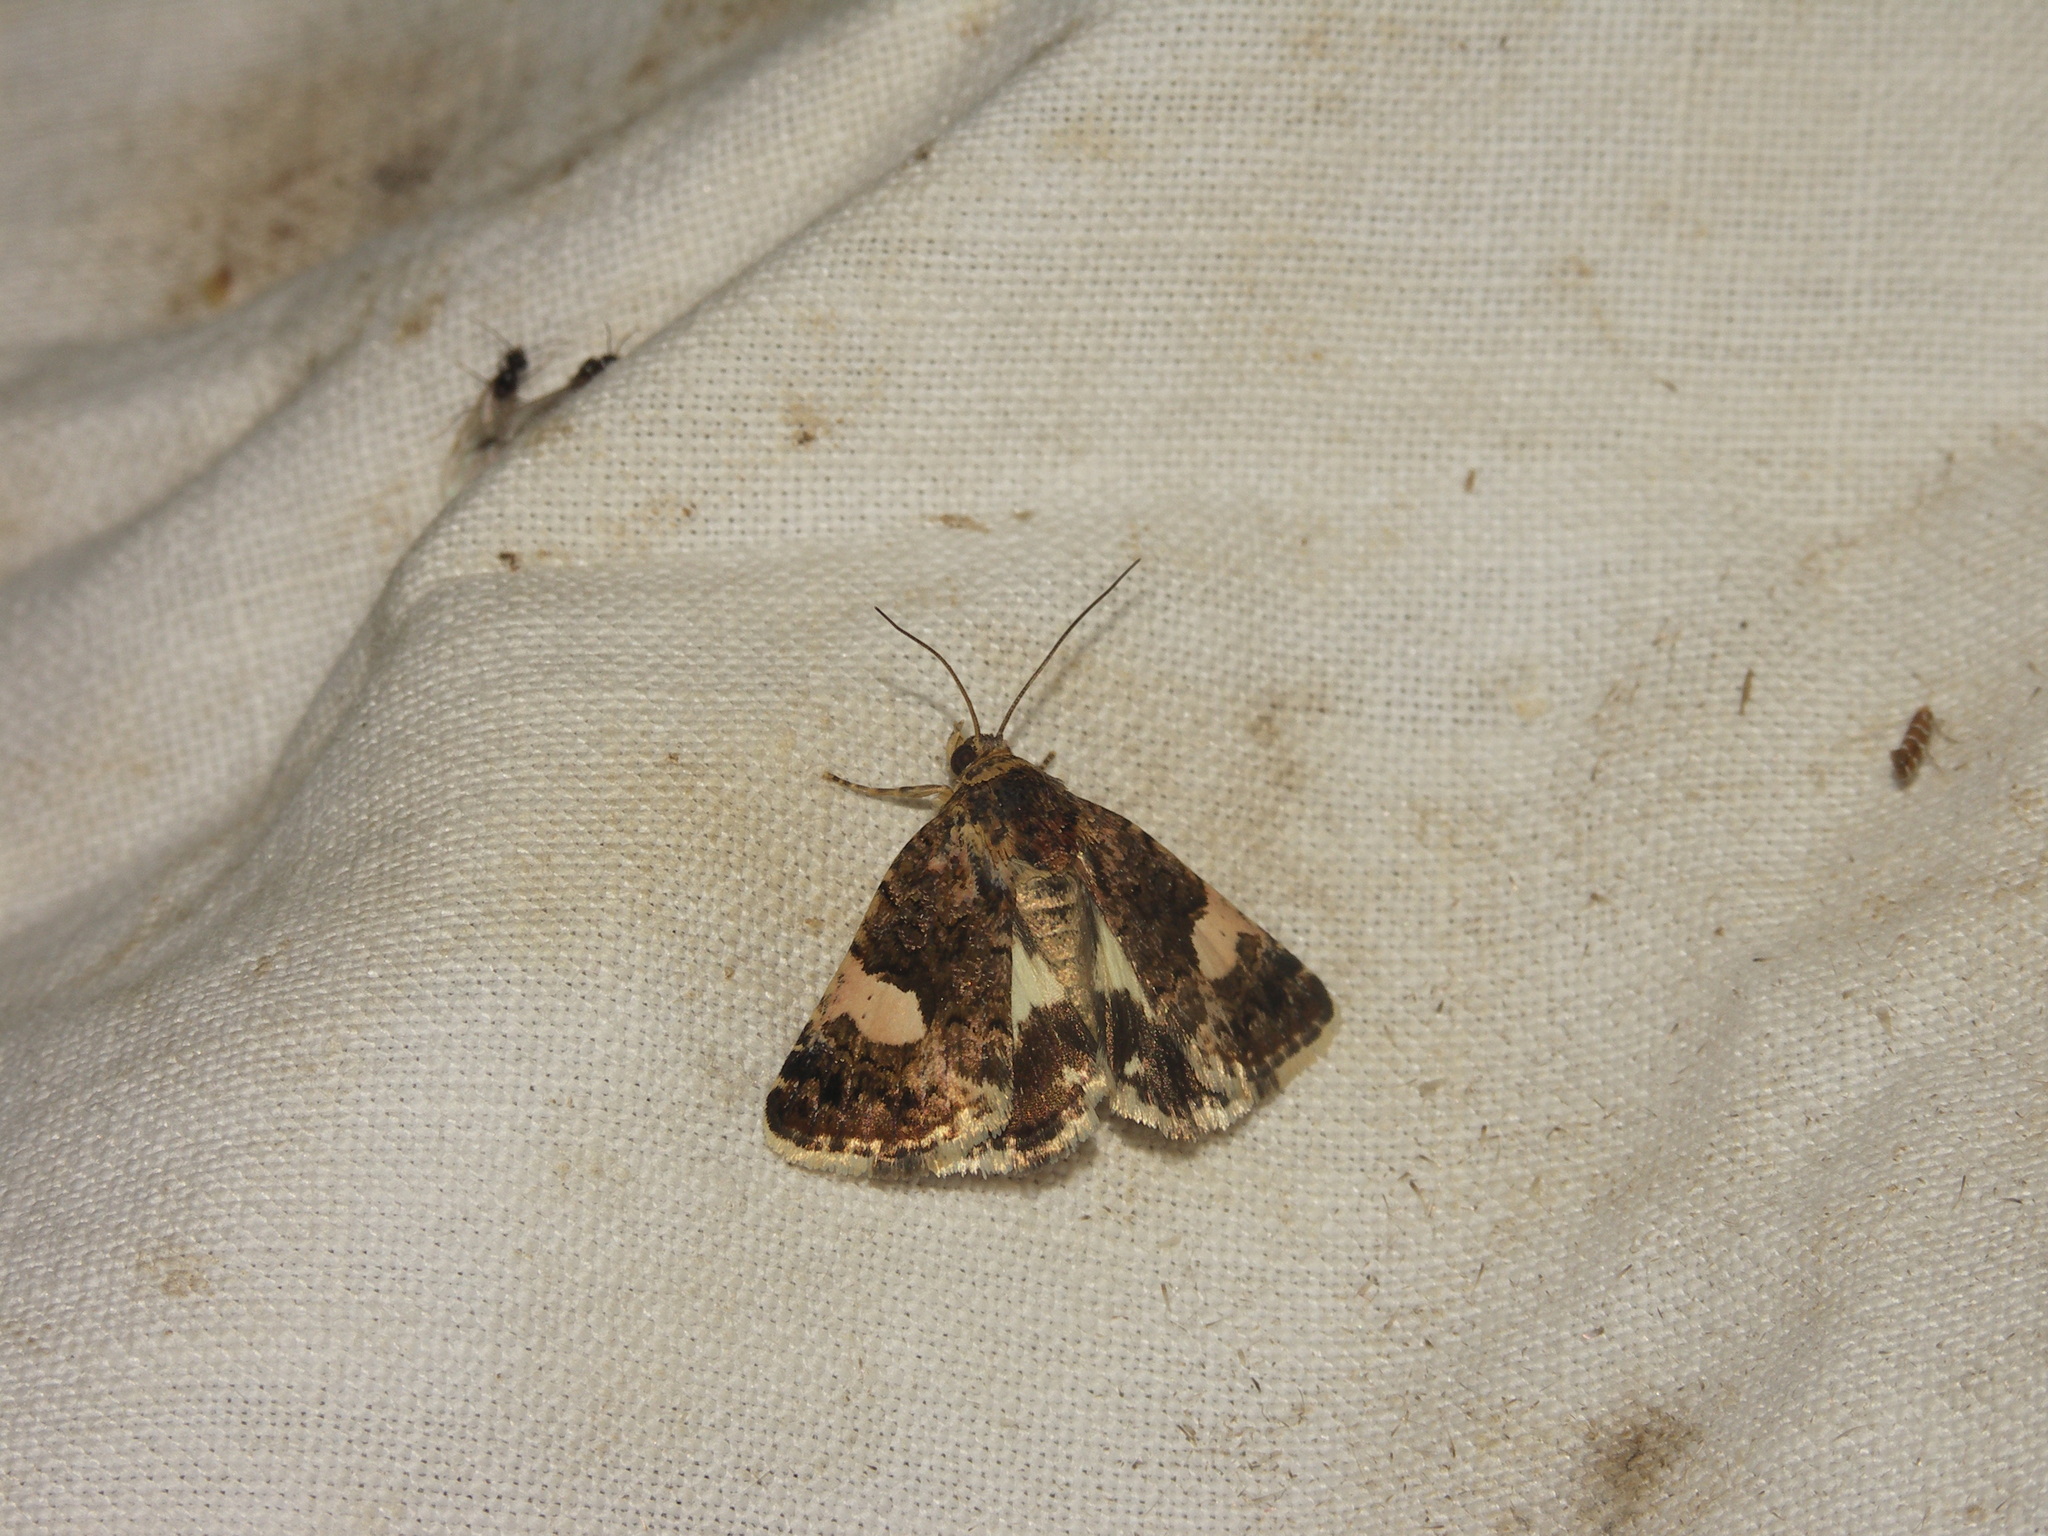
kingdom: Animalia
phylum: Arthropoda
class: Insecta
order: Lepidoptera
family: Erebidae
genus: Tyta
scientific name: Tyta luctuosa
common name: Four-spotted
